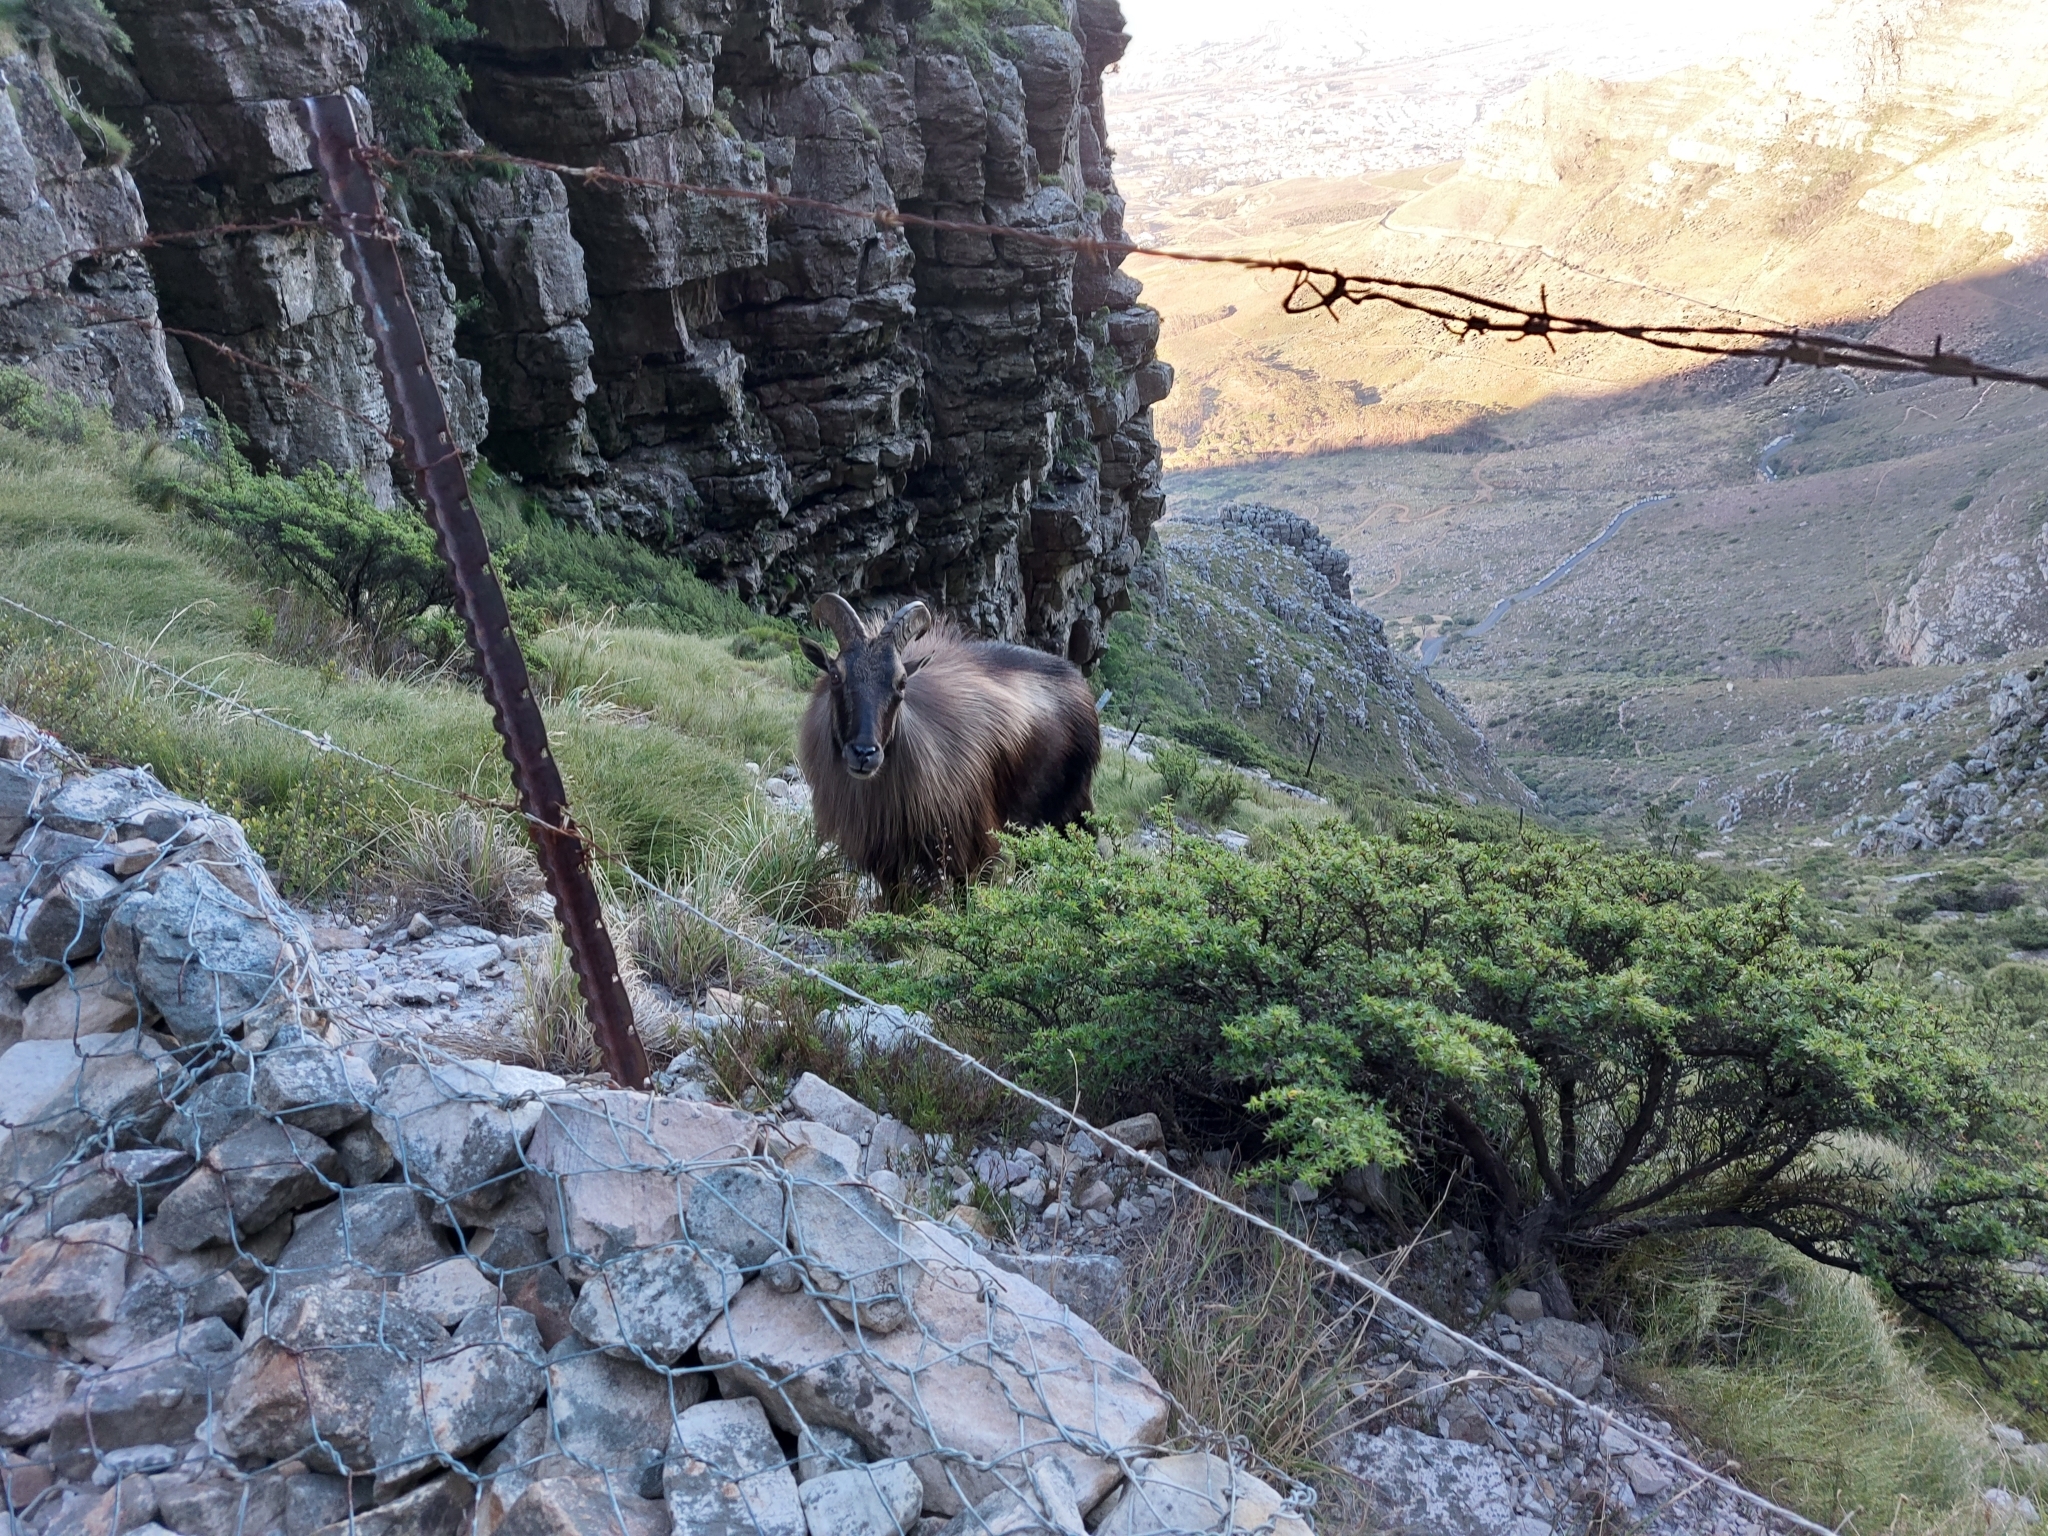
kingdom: Animalia
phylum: Chordata
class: Mammalia
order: Artiodactyla
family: Bovidae
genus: Hemitragus
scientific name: Hemitragus jemlahicus
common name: Himalayan tahr
